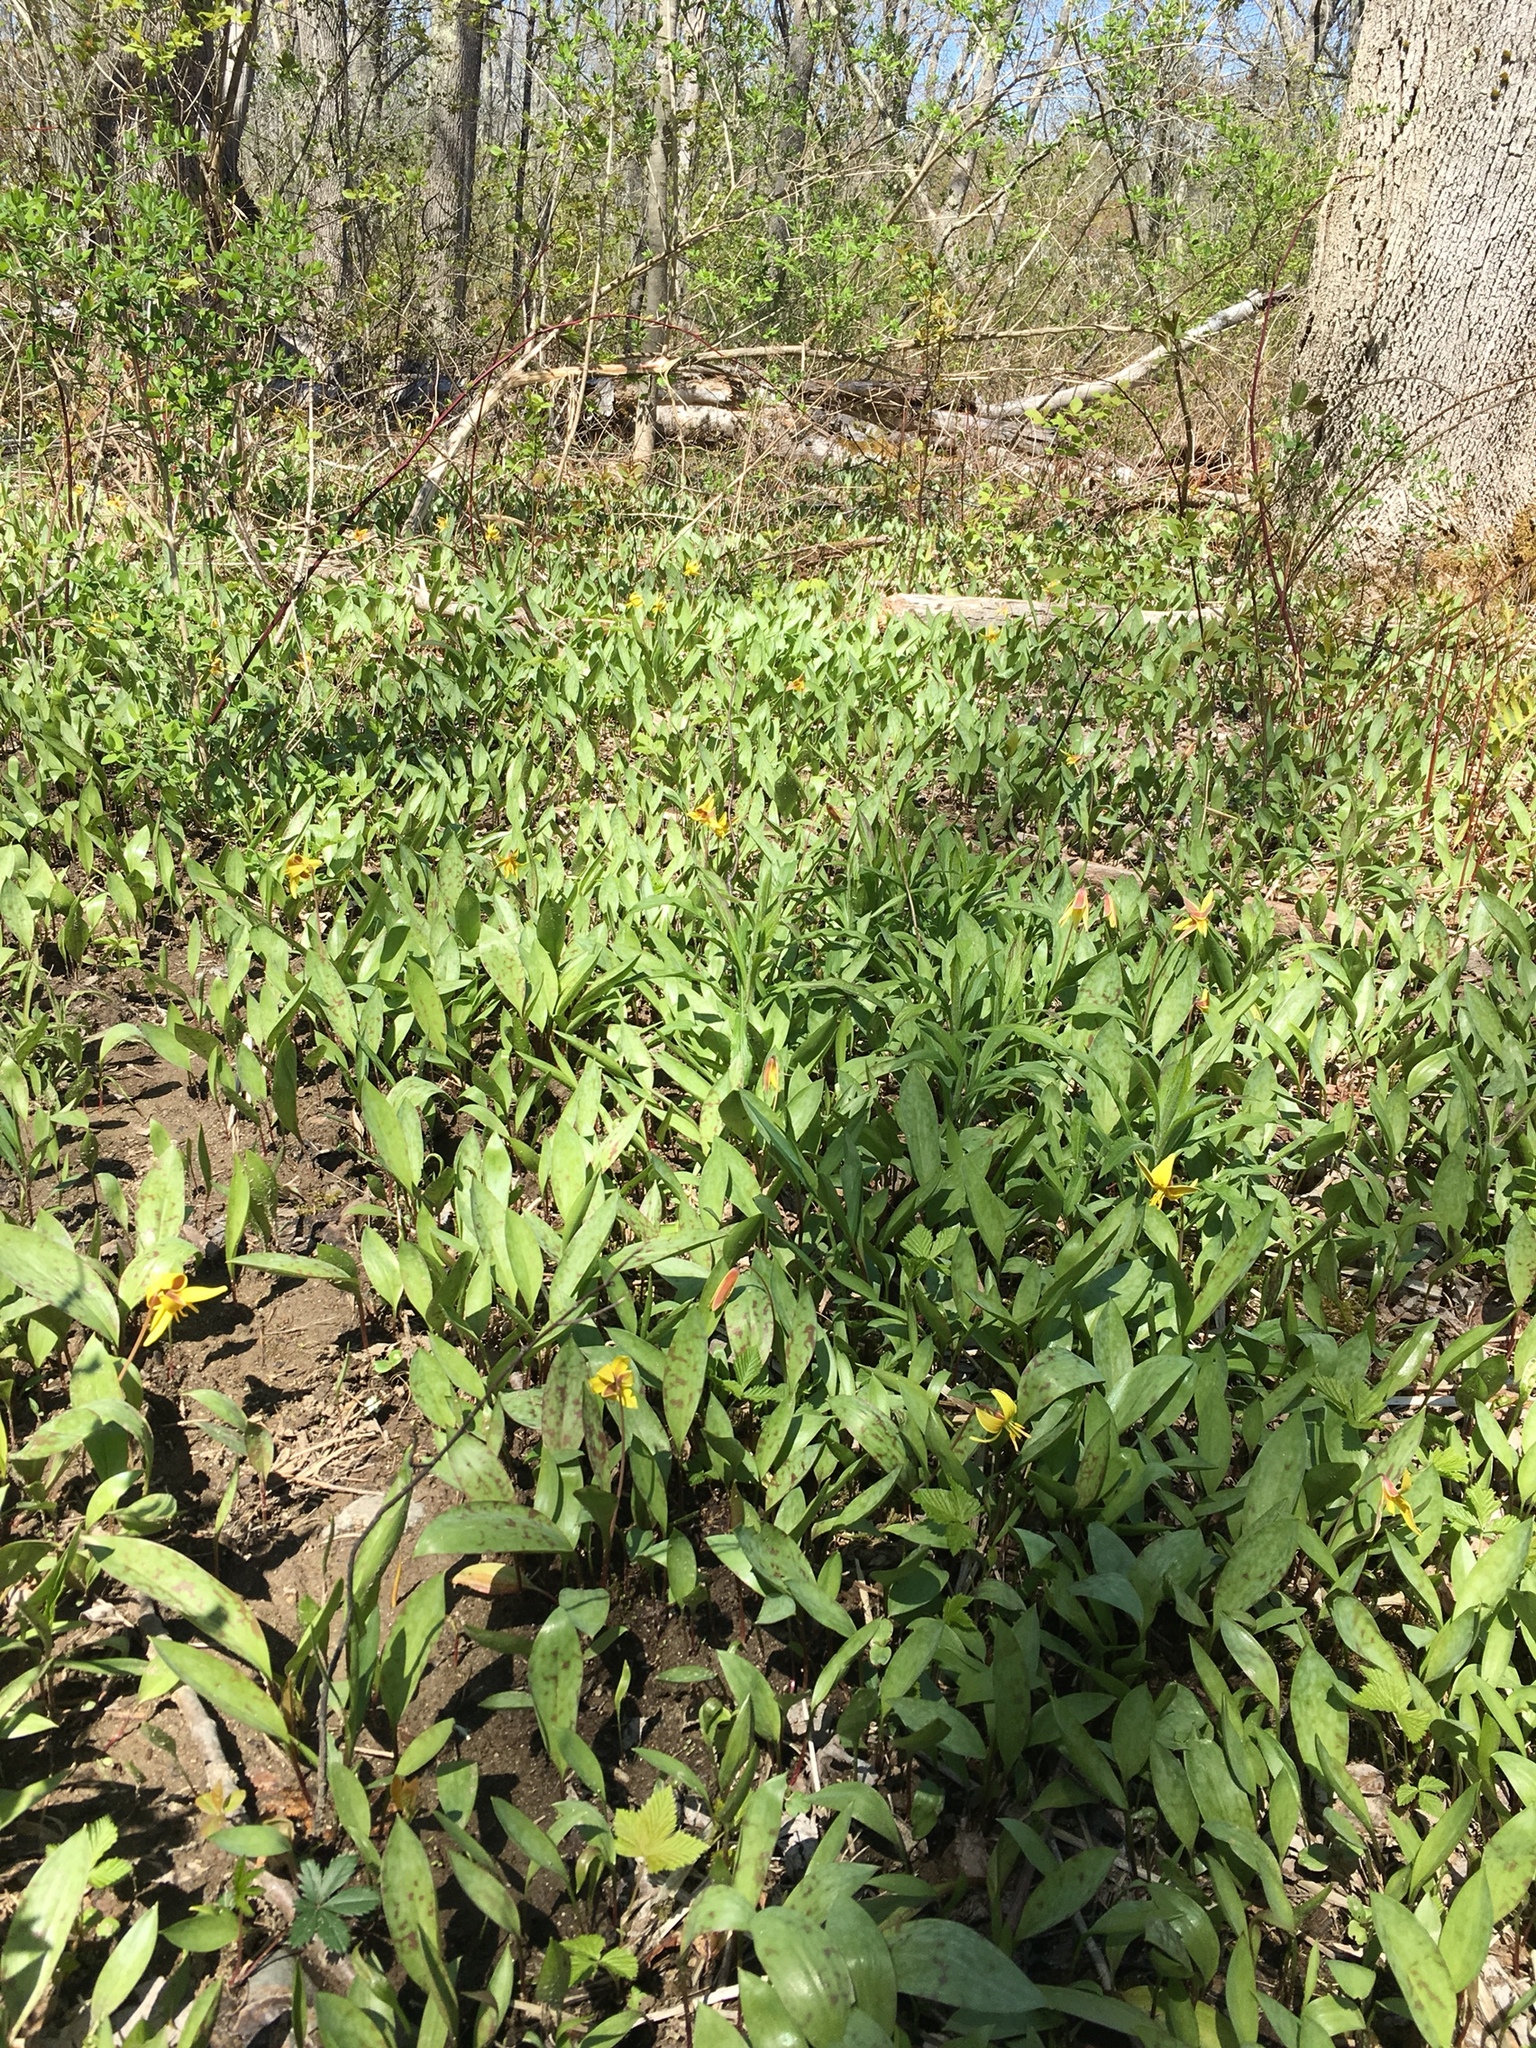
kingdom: Plantae
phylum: Tracheophyta
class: Liliopsida
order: Liliales
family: Liliaceae
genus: Erythronium
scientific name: Erythronium americanum
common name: Yellow adder's-tongue
